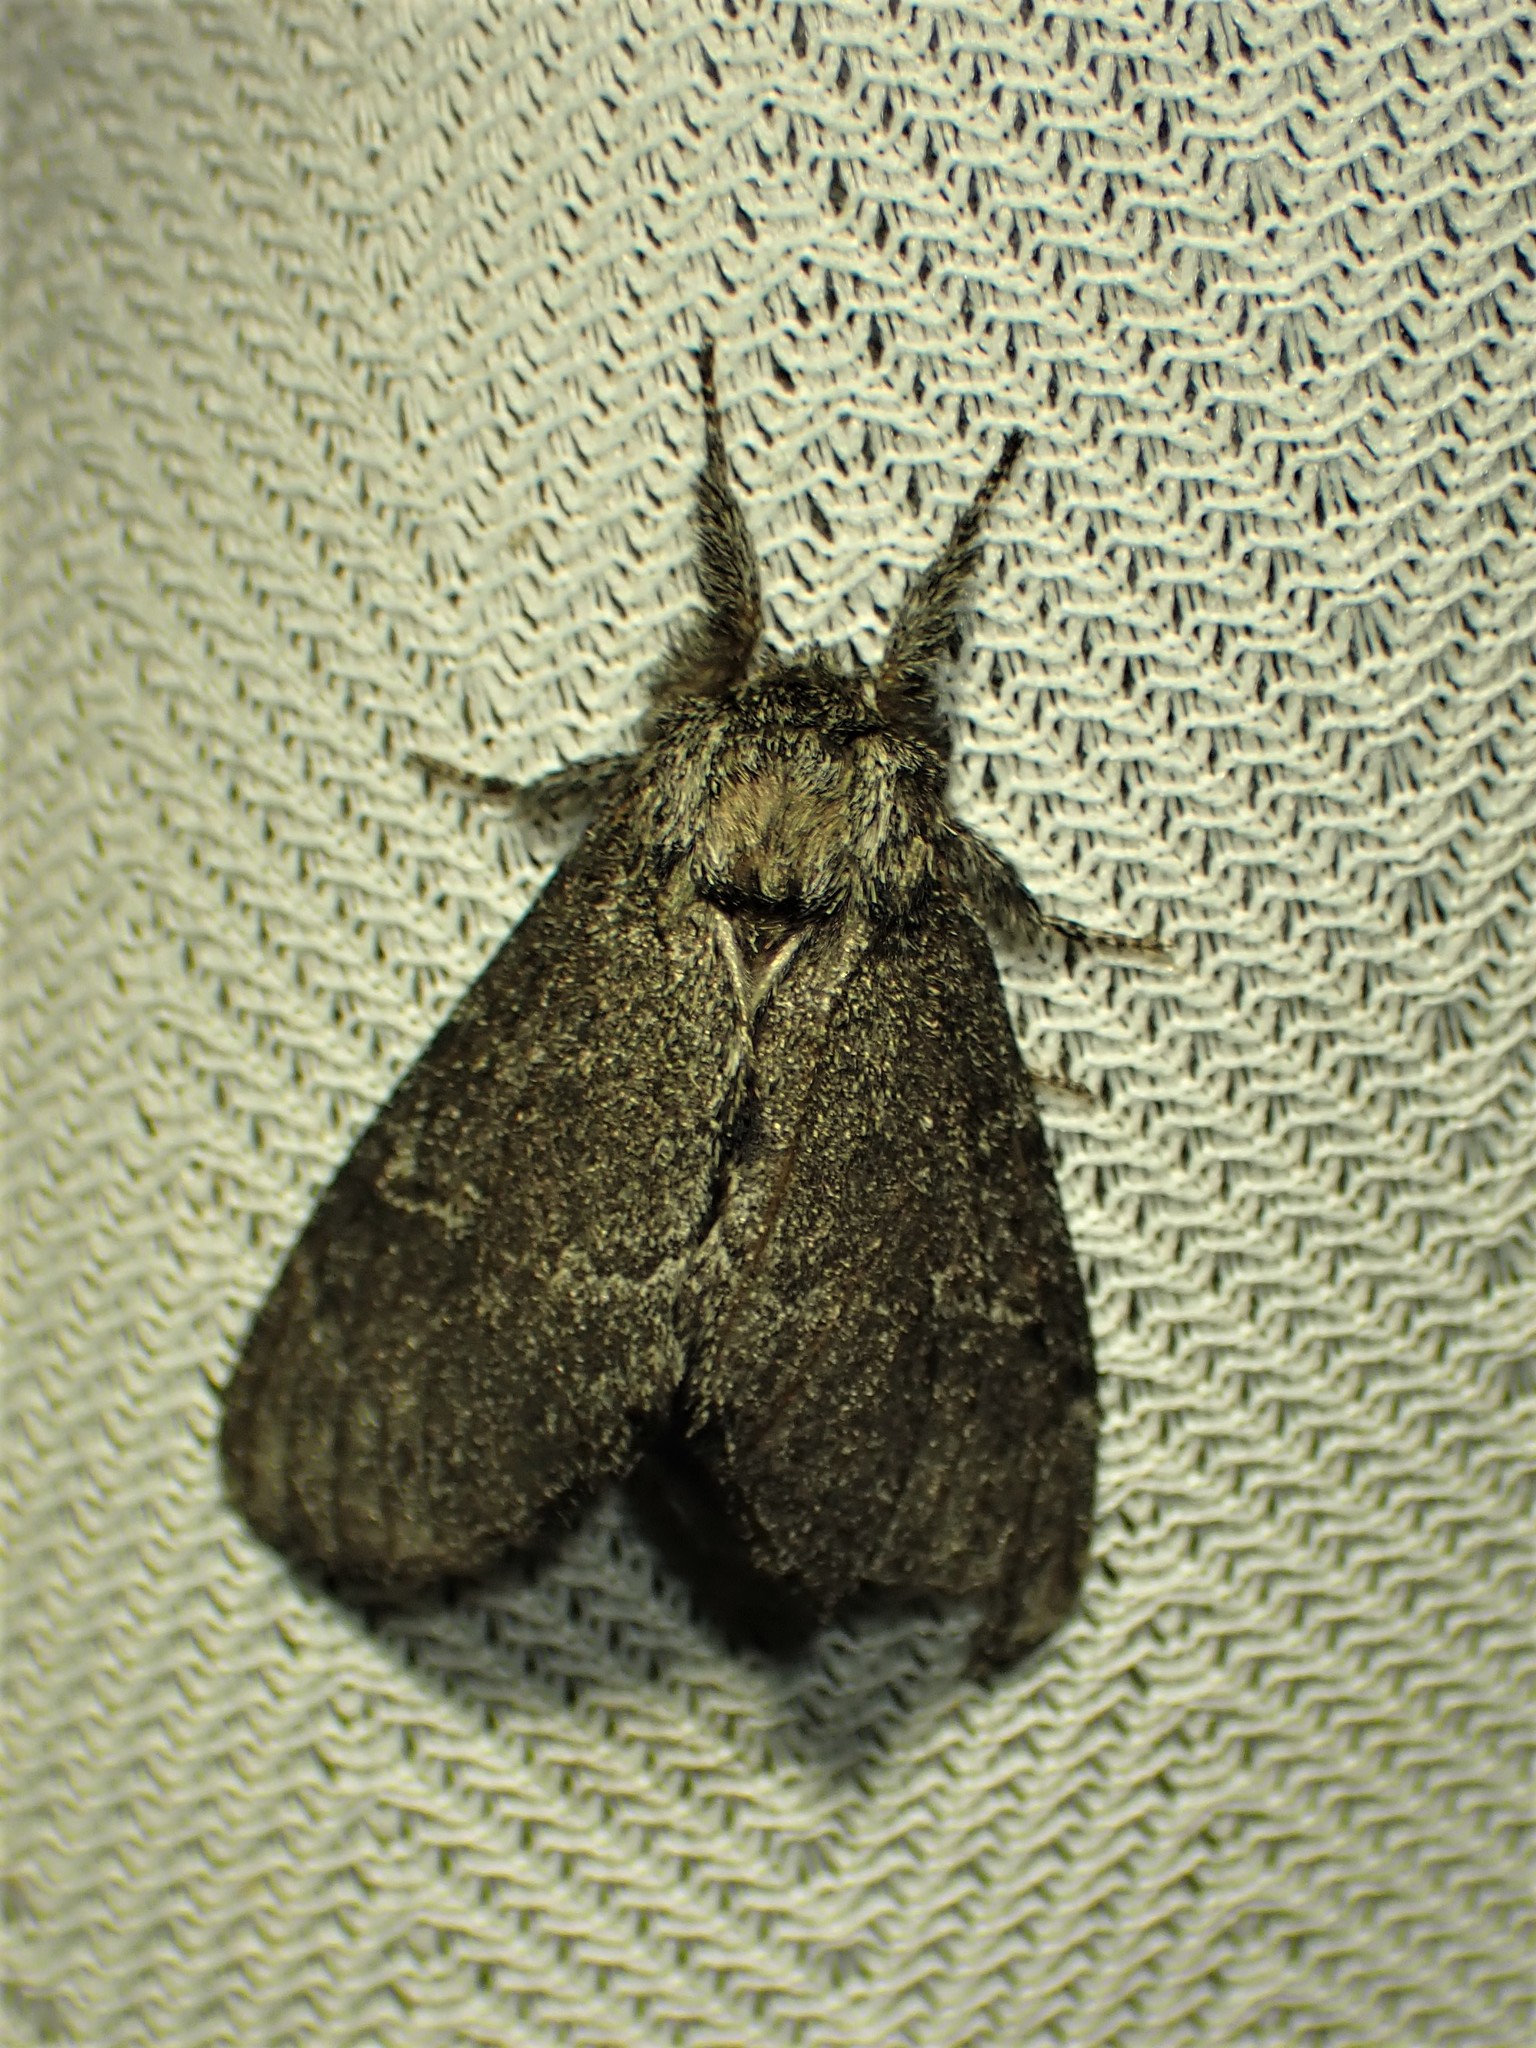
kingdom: Animalia
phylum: Arthropoda
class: Insecta
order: Lepidoptera
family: Notodontidae
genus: Notodonta
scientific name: Notodonta torva
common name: Large dark prominent
